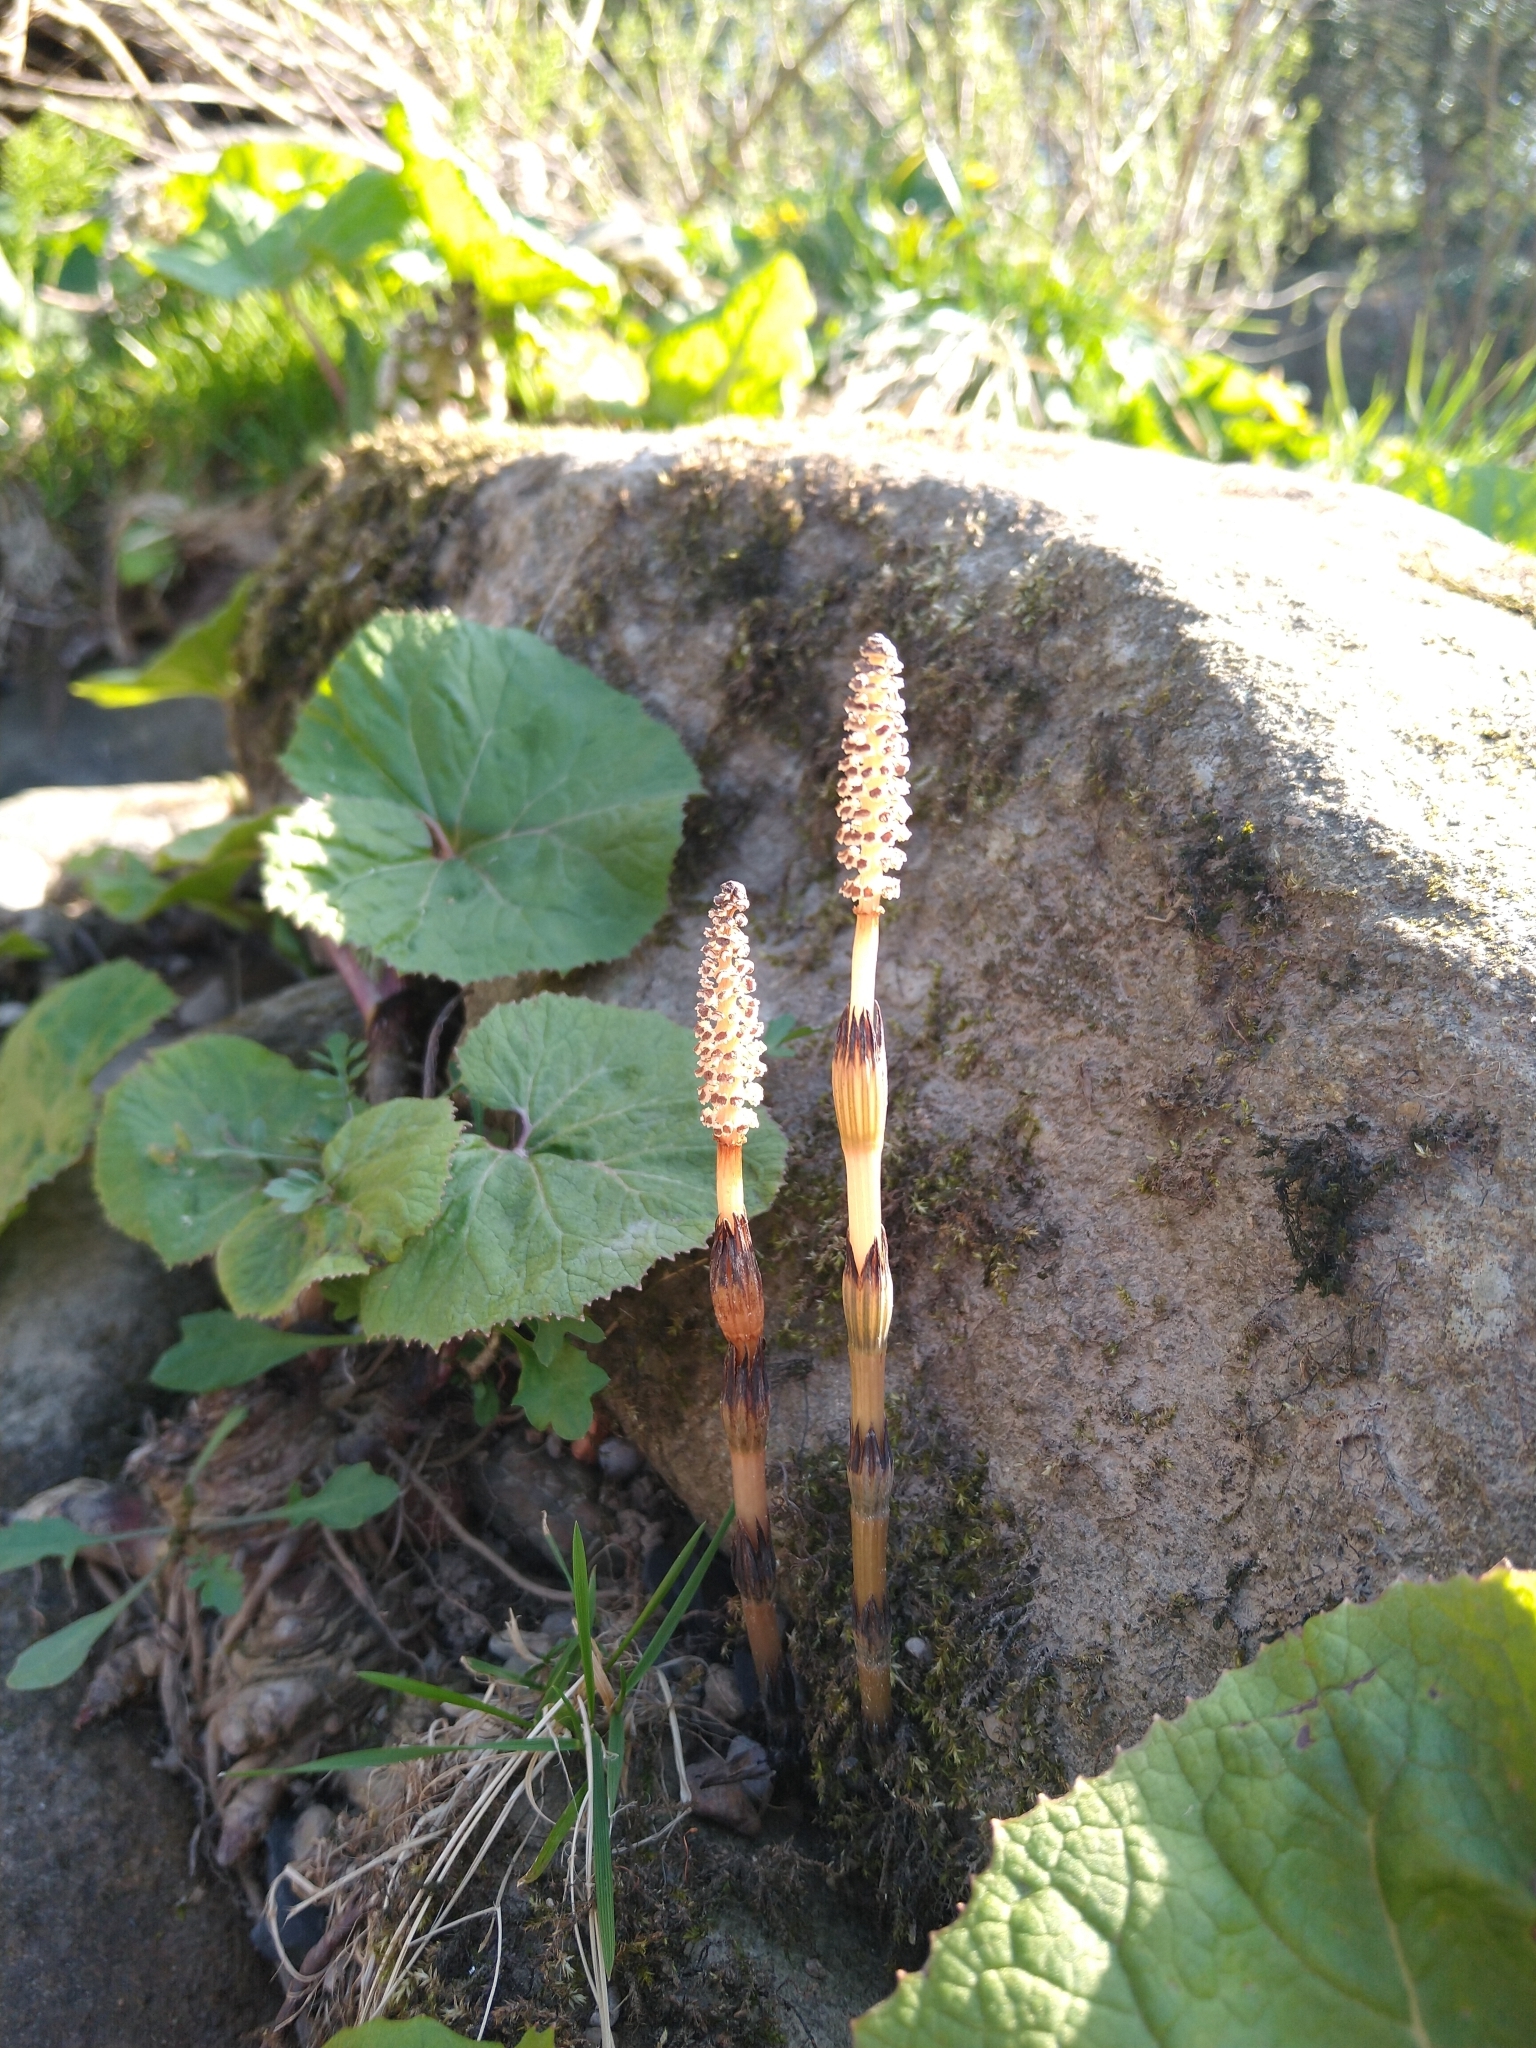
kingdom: Plantae
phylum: Tracheophyta
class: Polypodiopsida
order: Equisetales
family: Equisetaceae
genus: Equisetum
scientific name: Equisetum arvense
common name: Field horsetail
